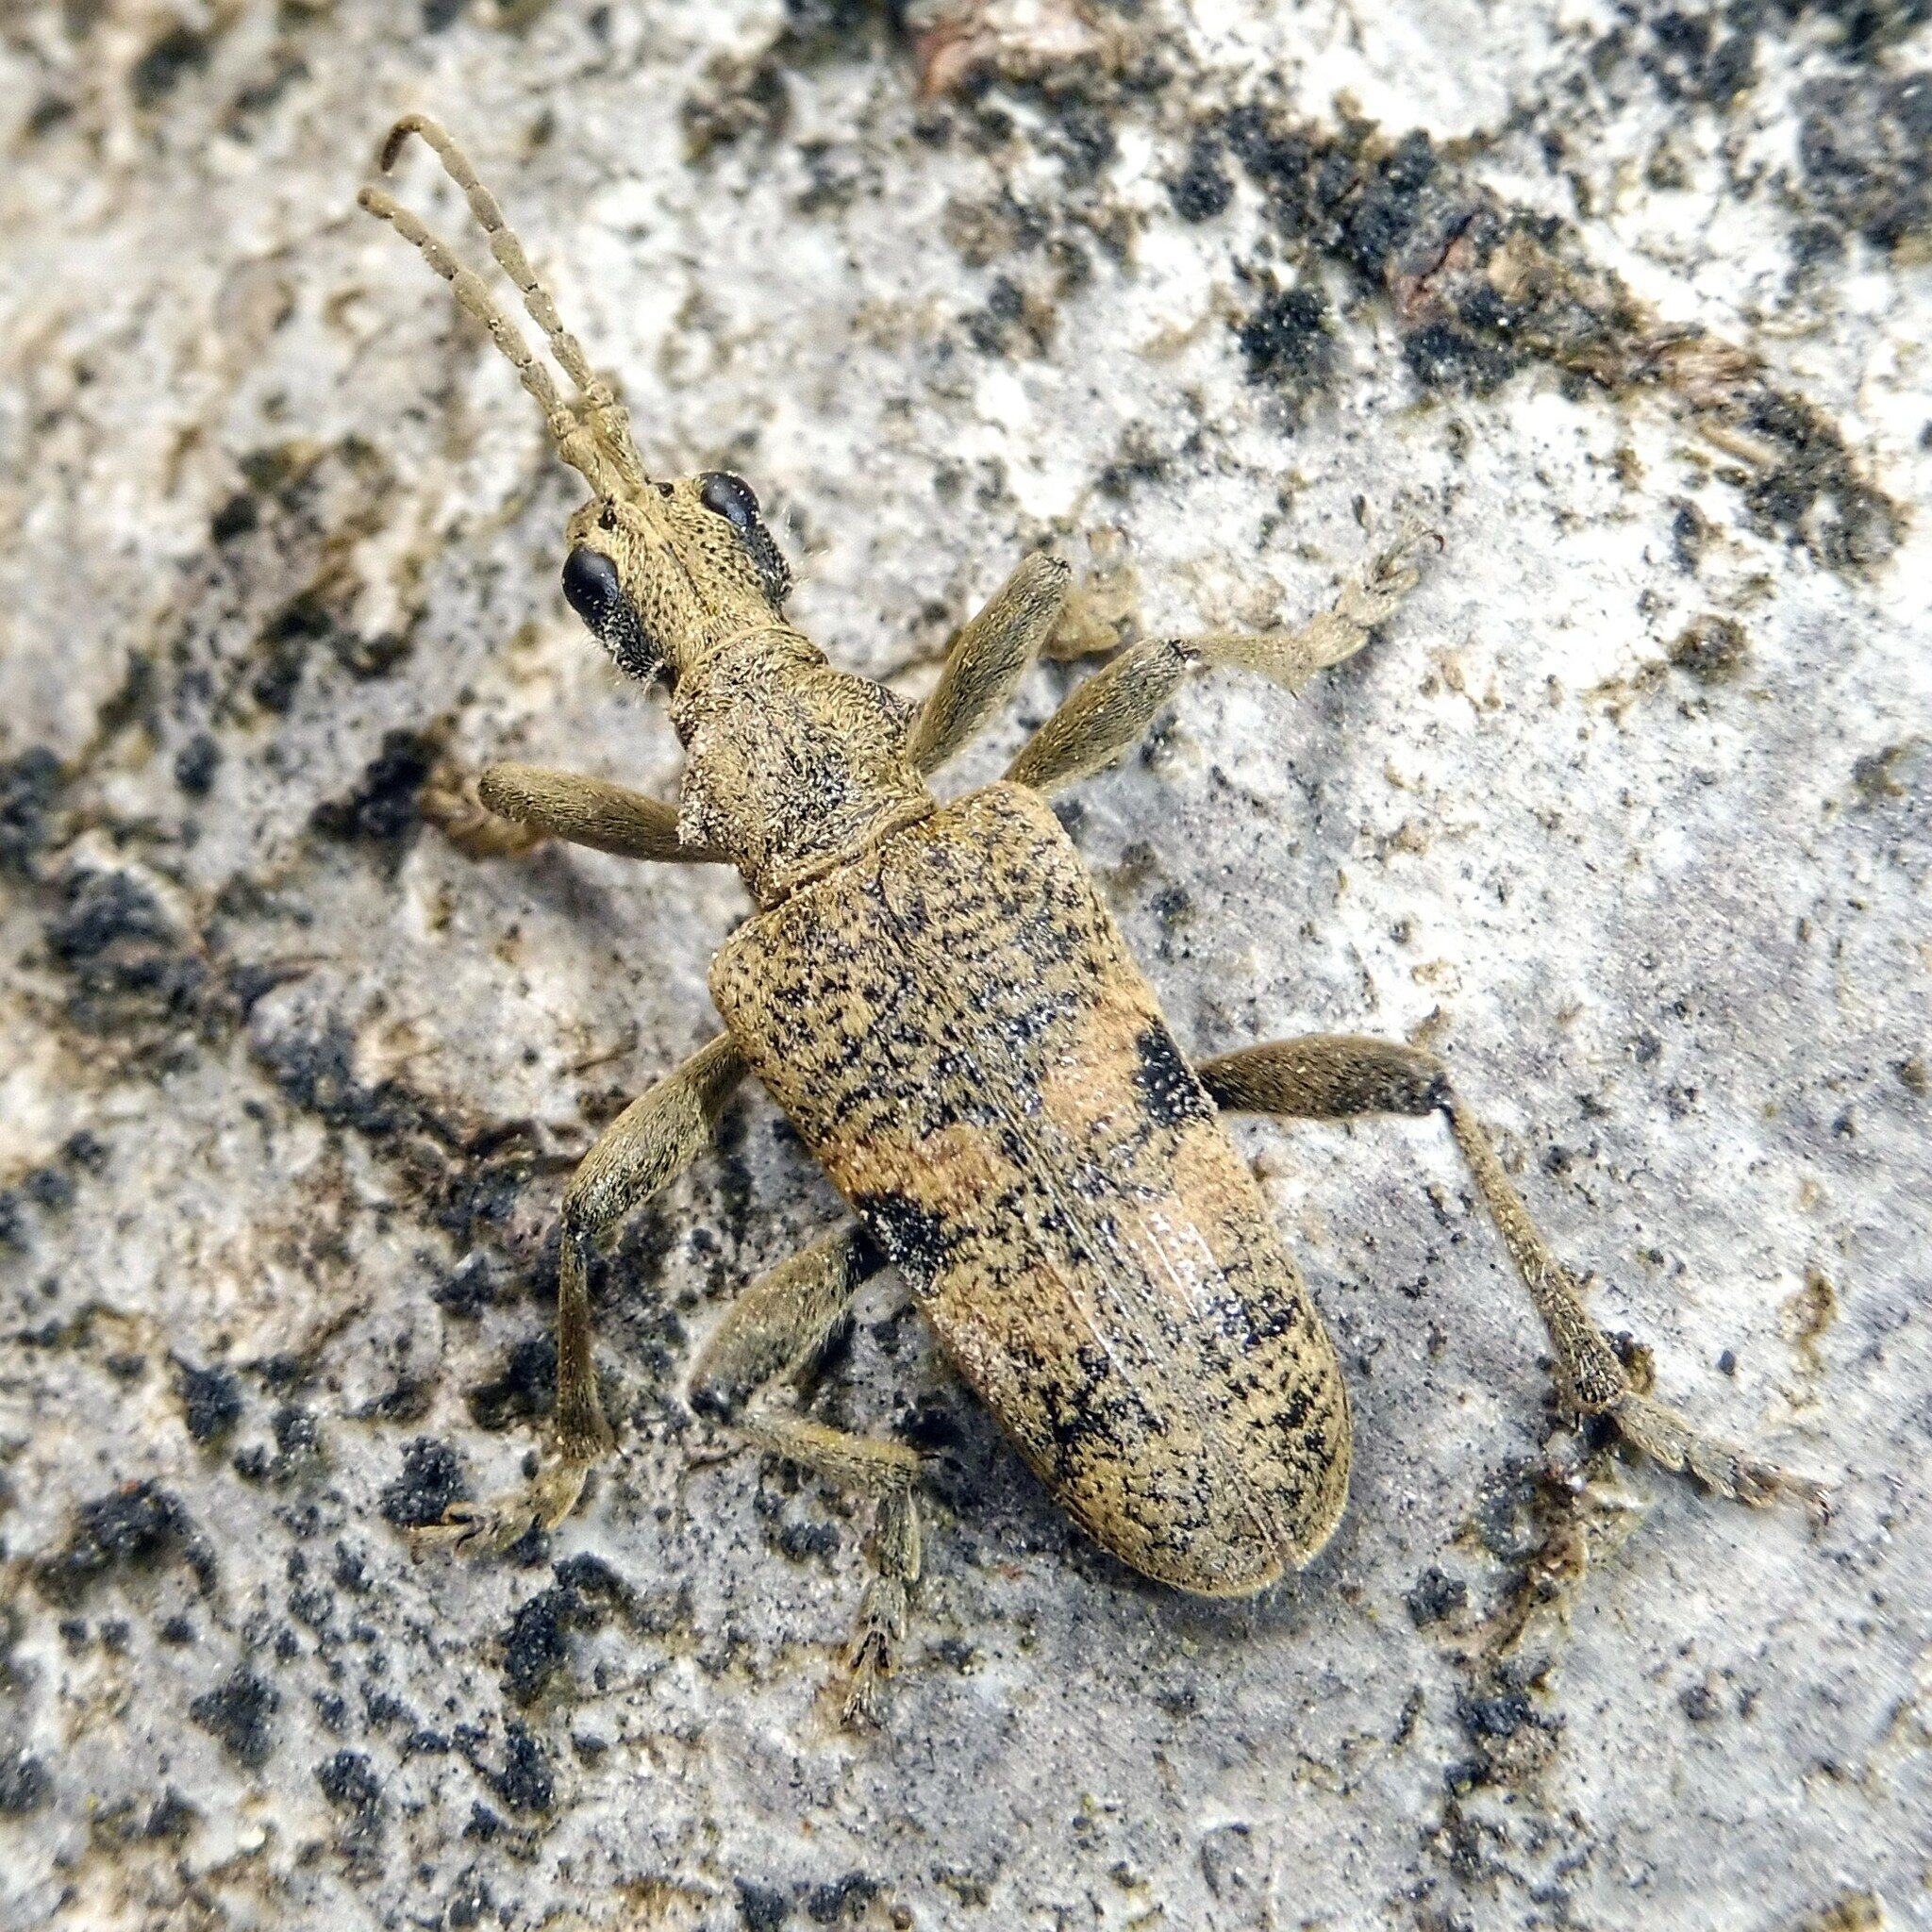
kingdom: Animalia
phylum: Arthropoda
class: Insecta
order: Coleoptera
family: Cerambycidae
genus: Rhagium
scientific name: Rhagium mordax
